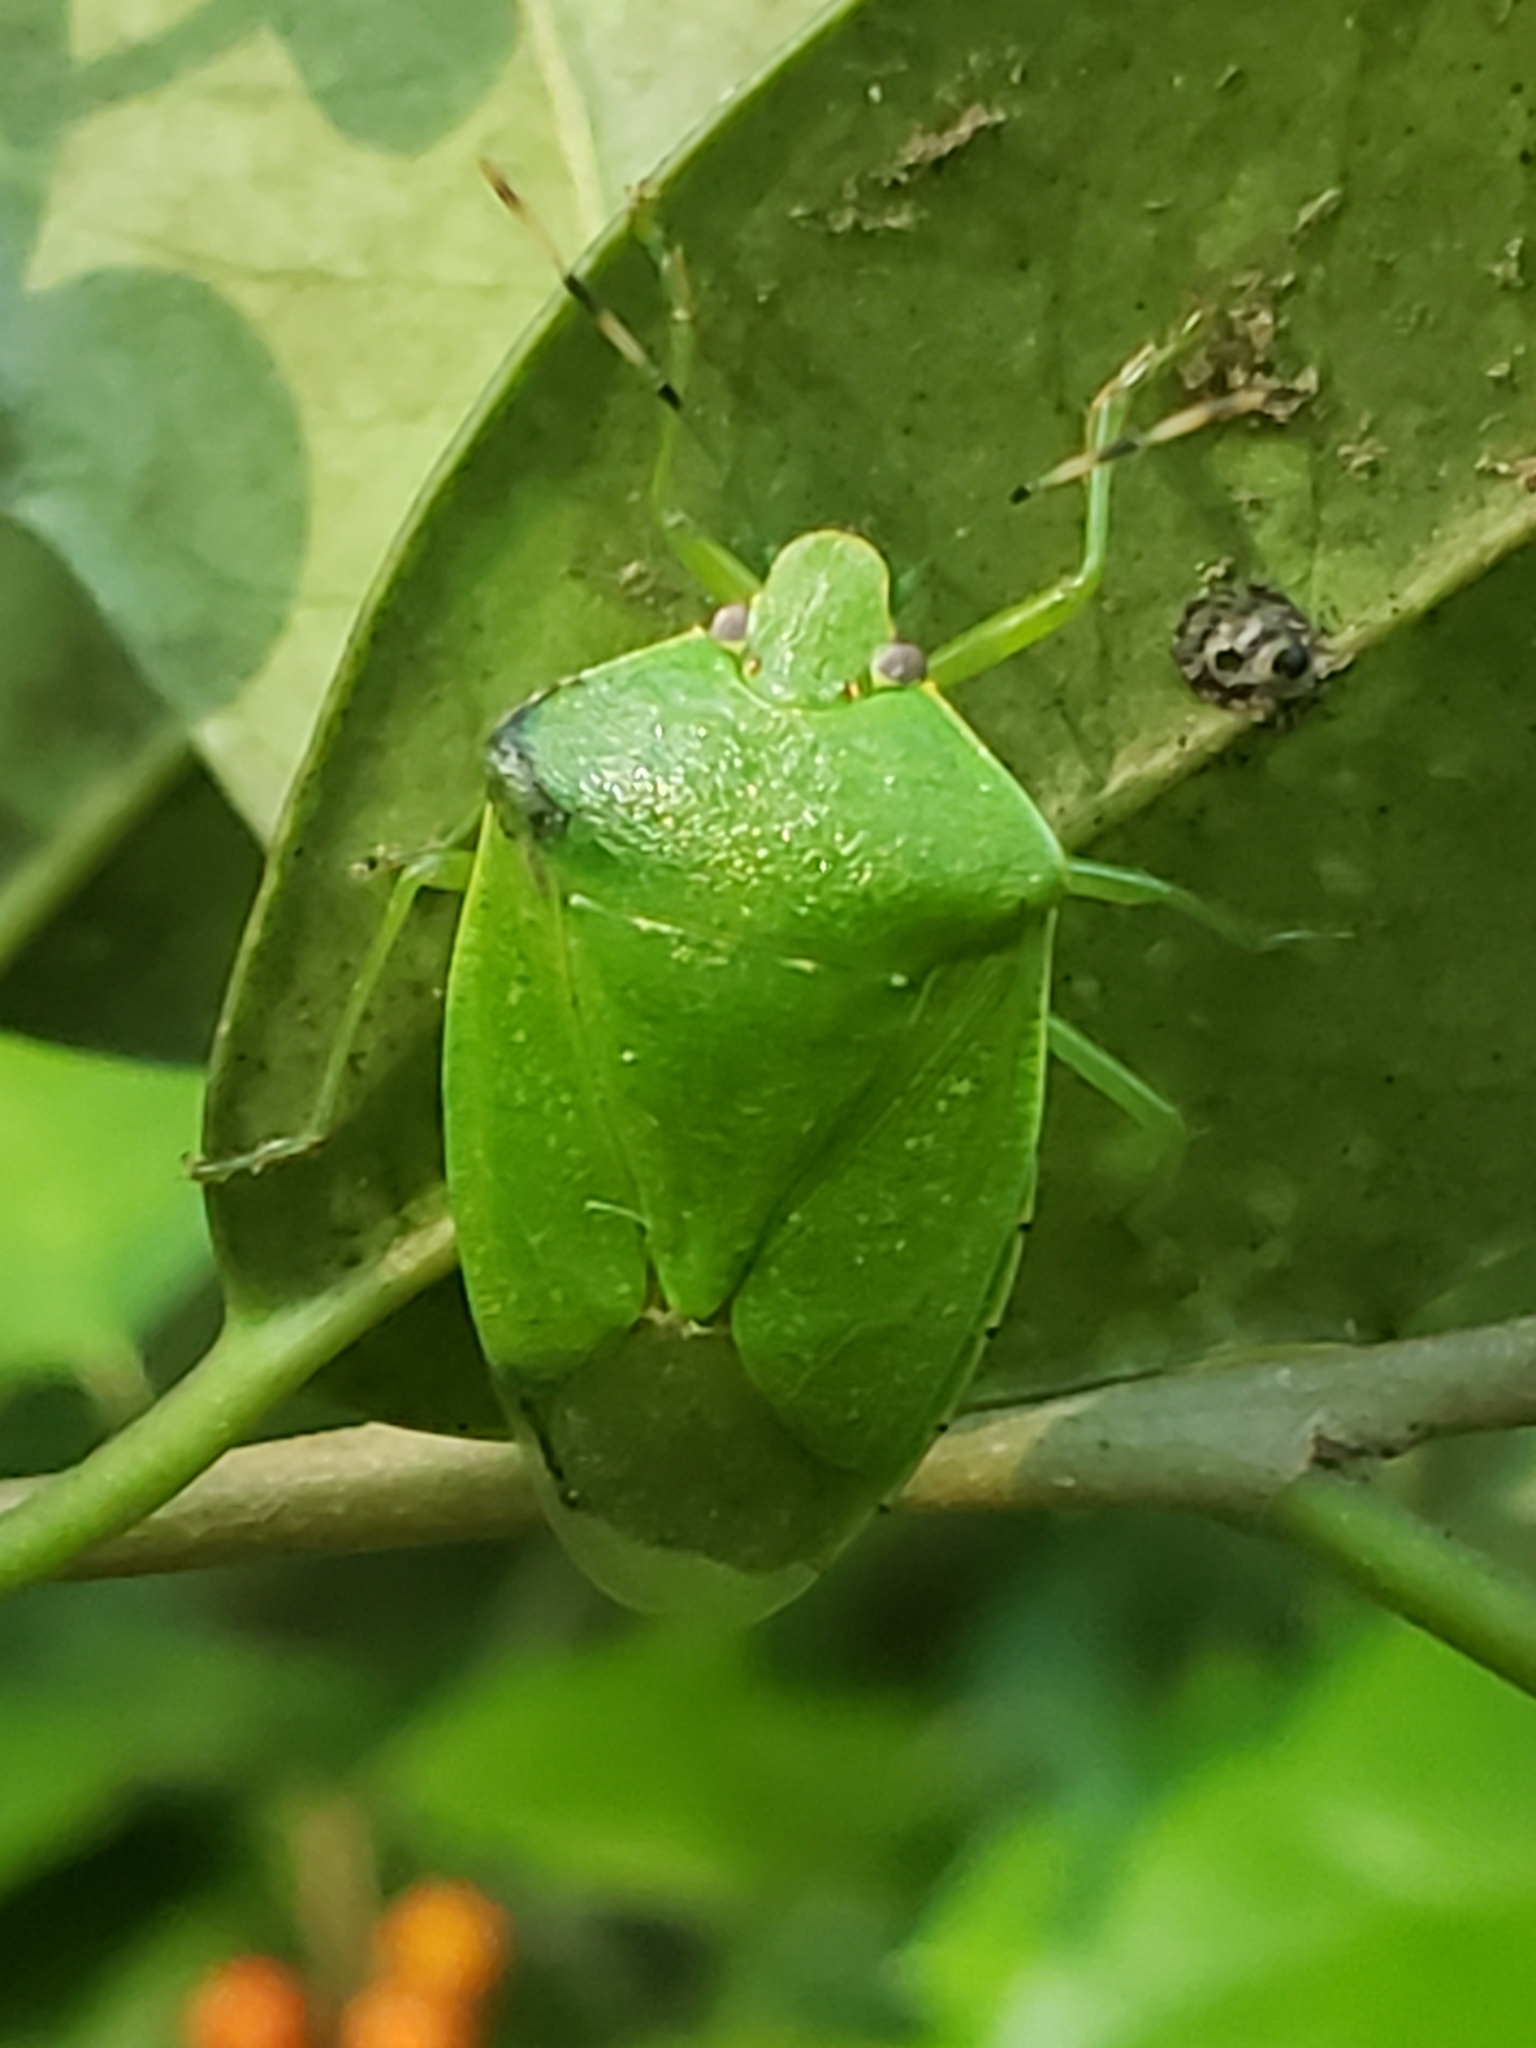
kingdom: Animalia
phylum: Arthropoda
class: Insecta
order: Hemiptera
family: Pentatomidae
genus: Chinavia
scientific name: Chinavia hilaris
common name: Green stink bug
